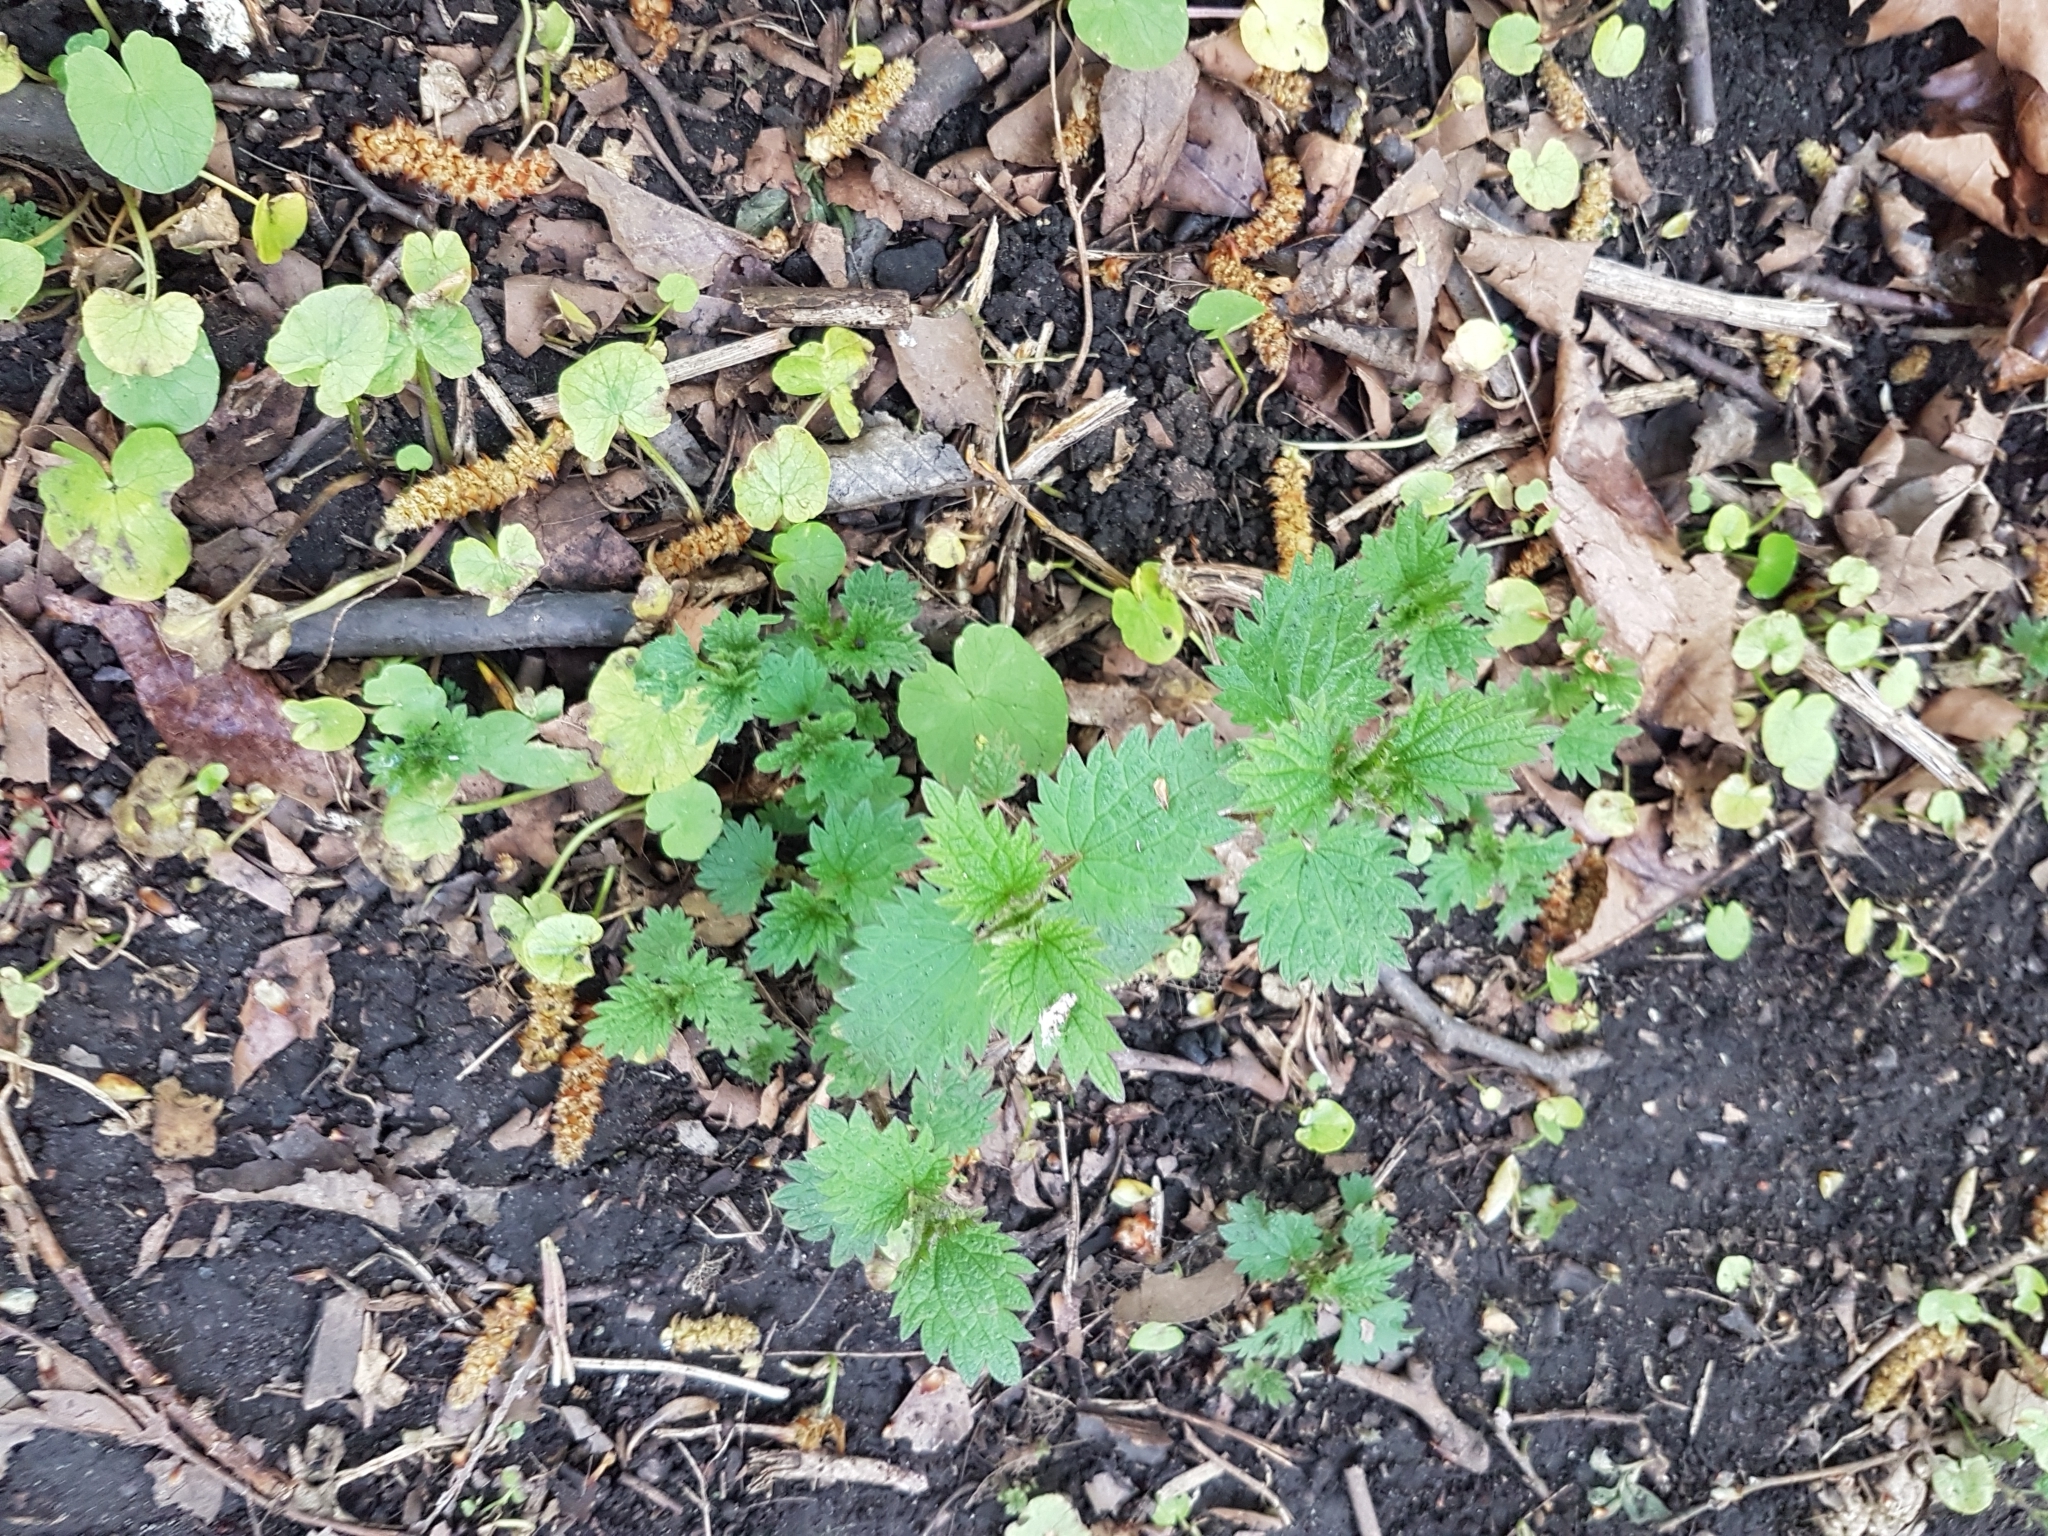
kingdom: Plantae
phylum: Tracheophyta
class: Magnoliopsida
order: Rosales
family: Urticaceae
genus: Urtica
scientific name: Urtica dioica
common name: Common nettle
